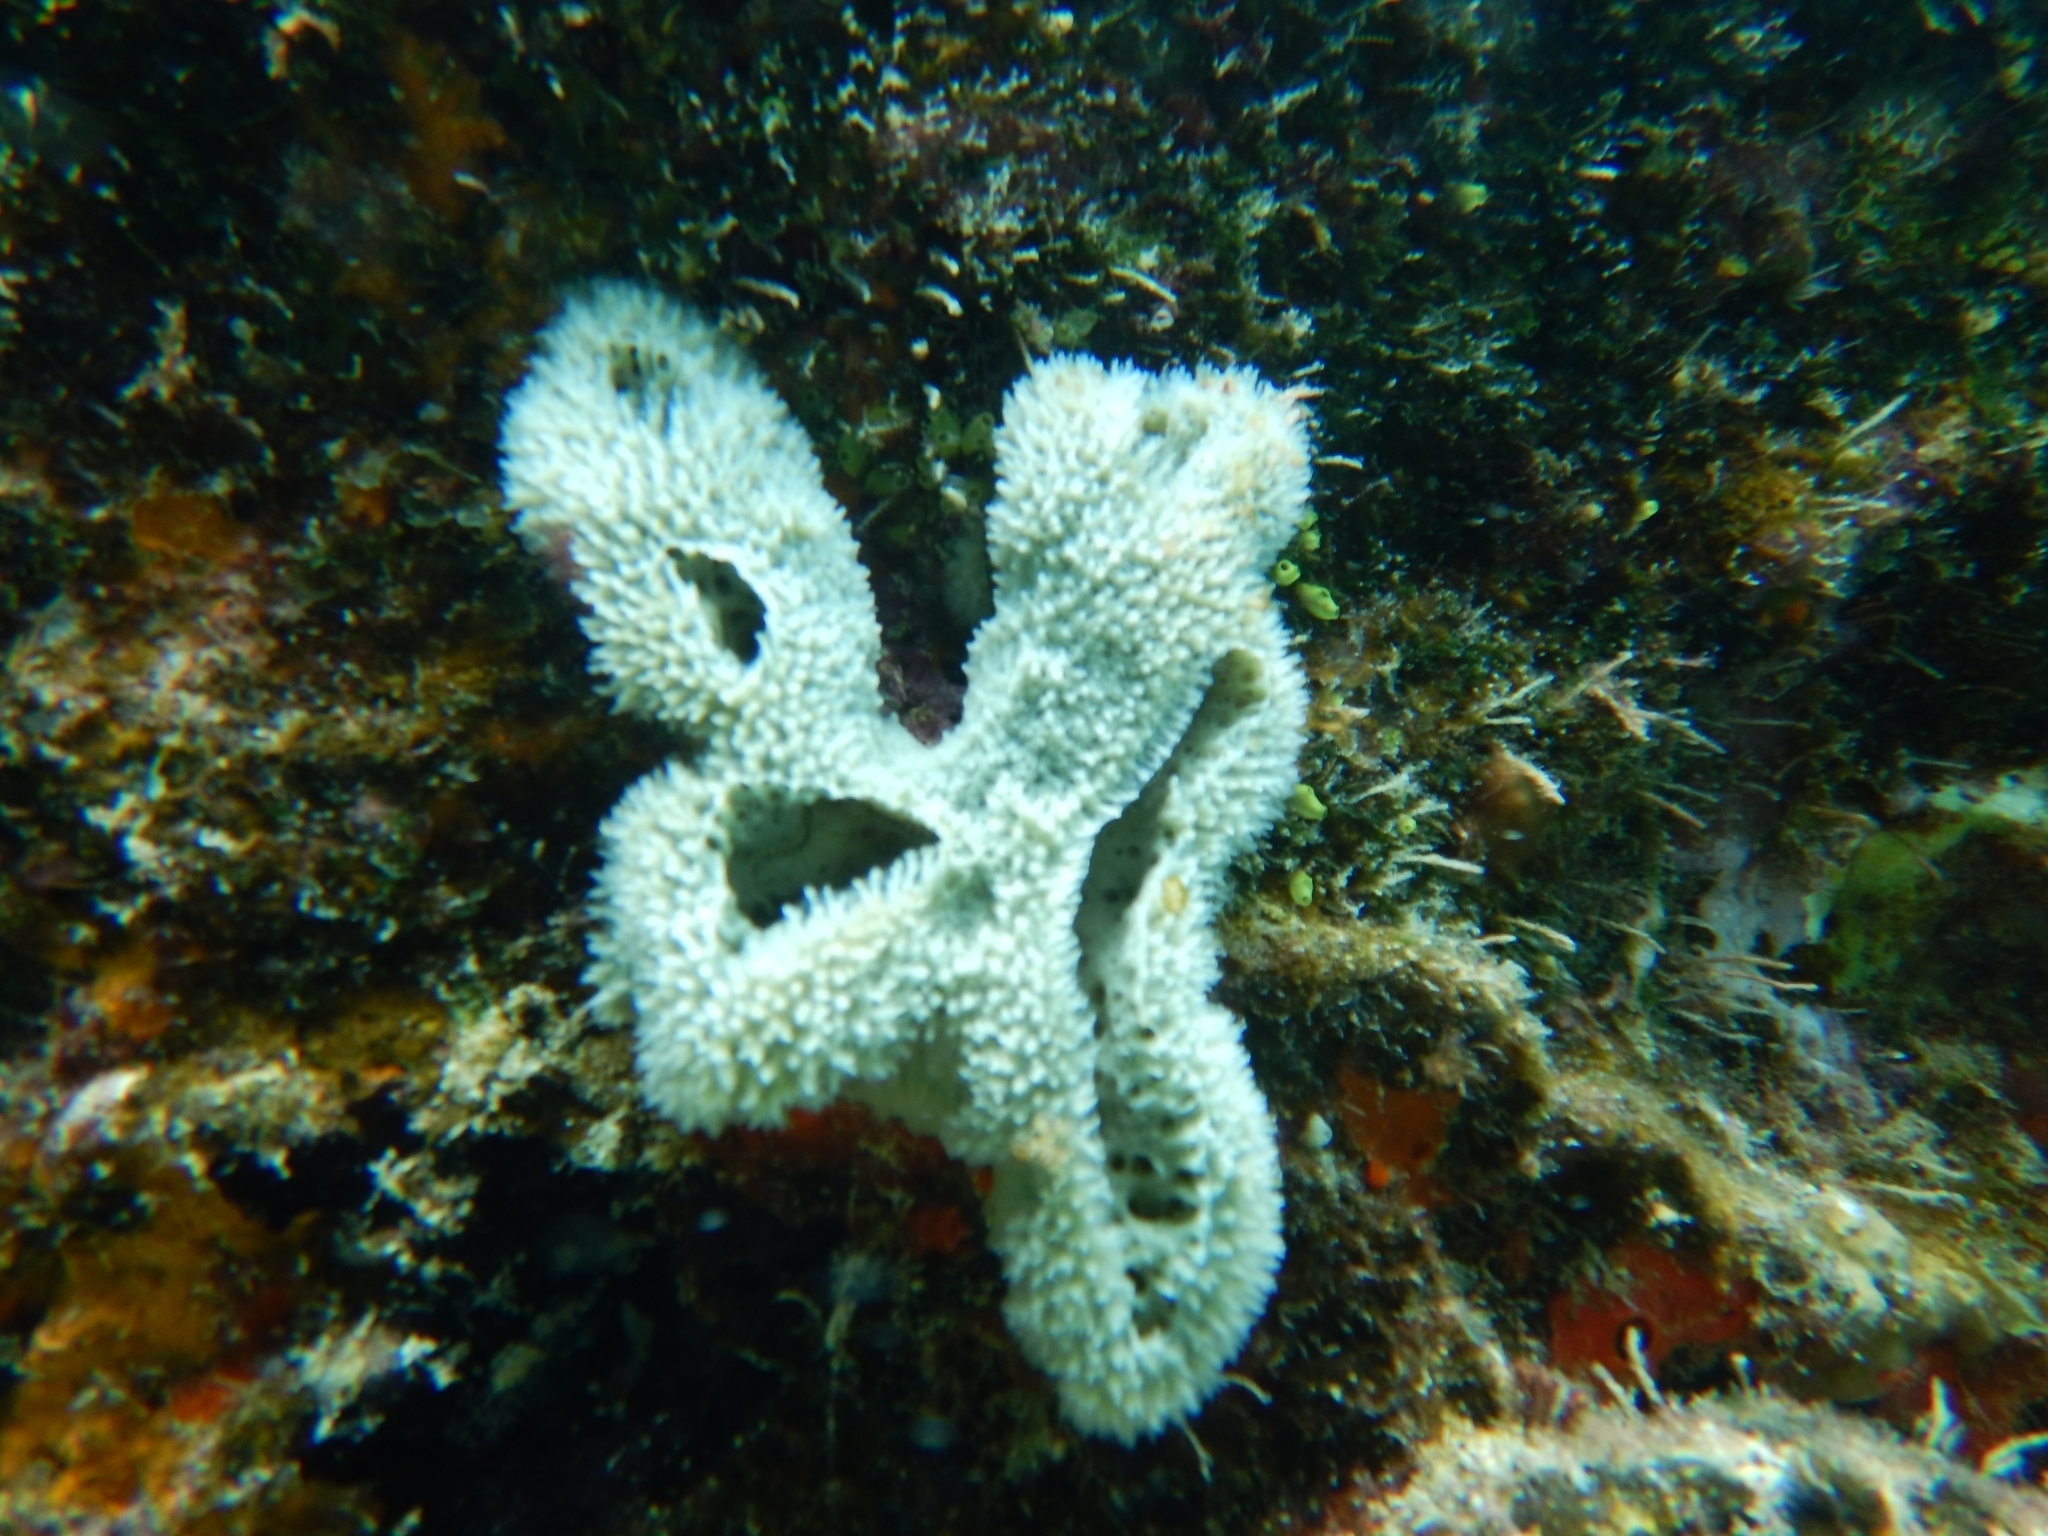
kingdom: Animalia
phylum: Porifera
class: Demospongiae
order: Haplosclerida
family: Niphatidae
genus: Niphates
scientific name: Niphates digitalis
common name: Pink vase sponge
